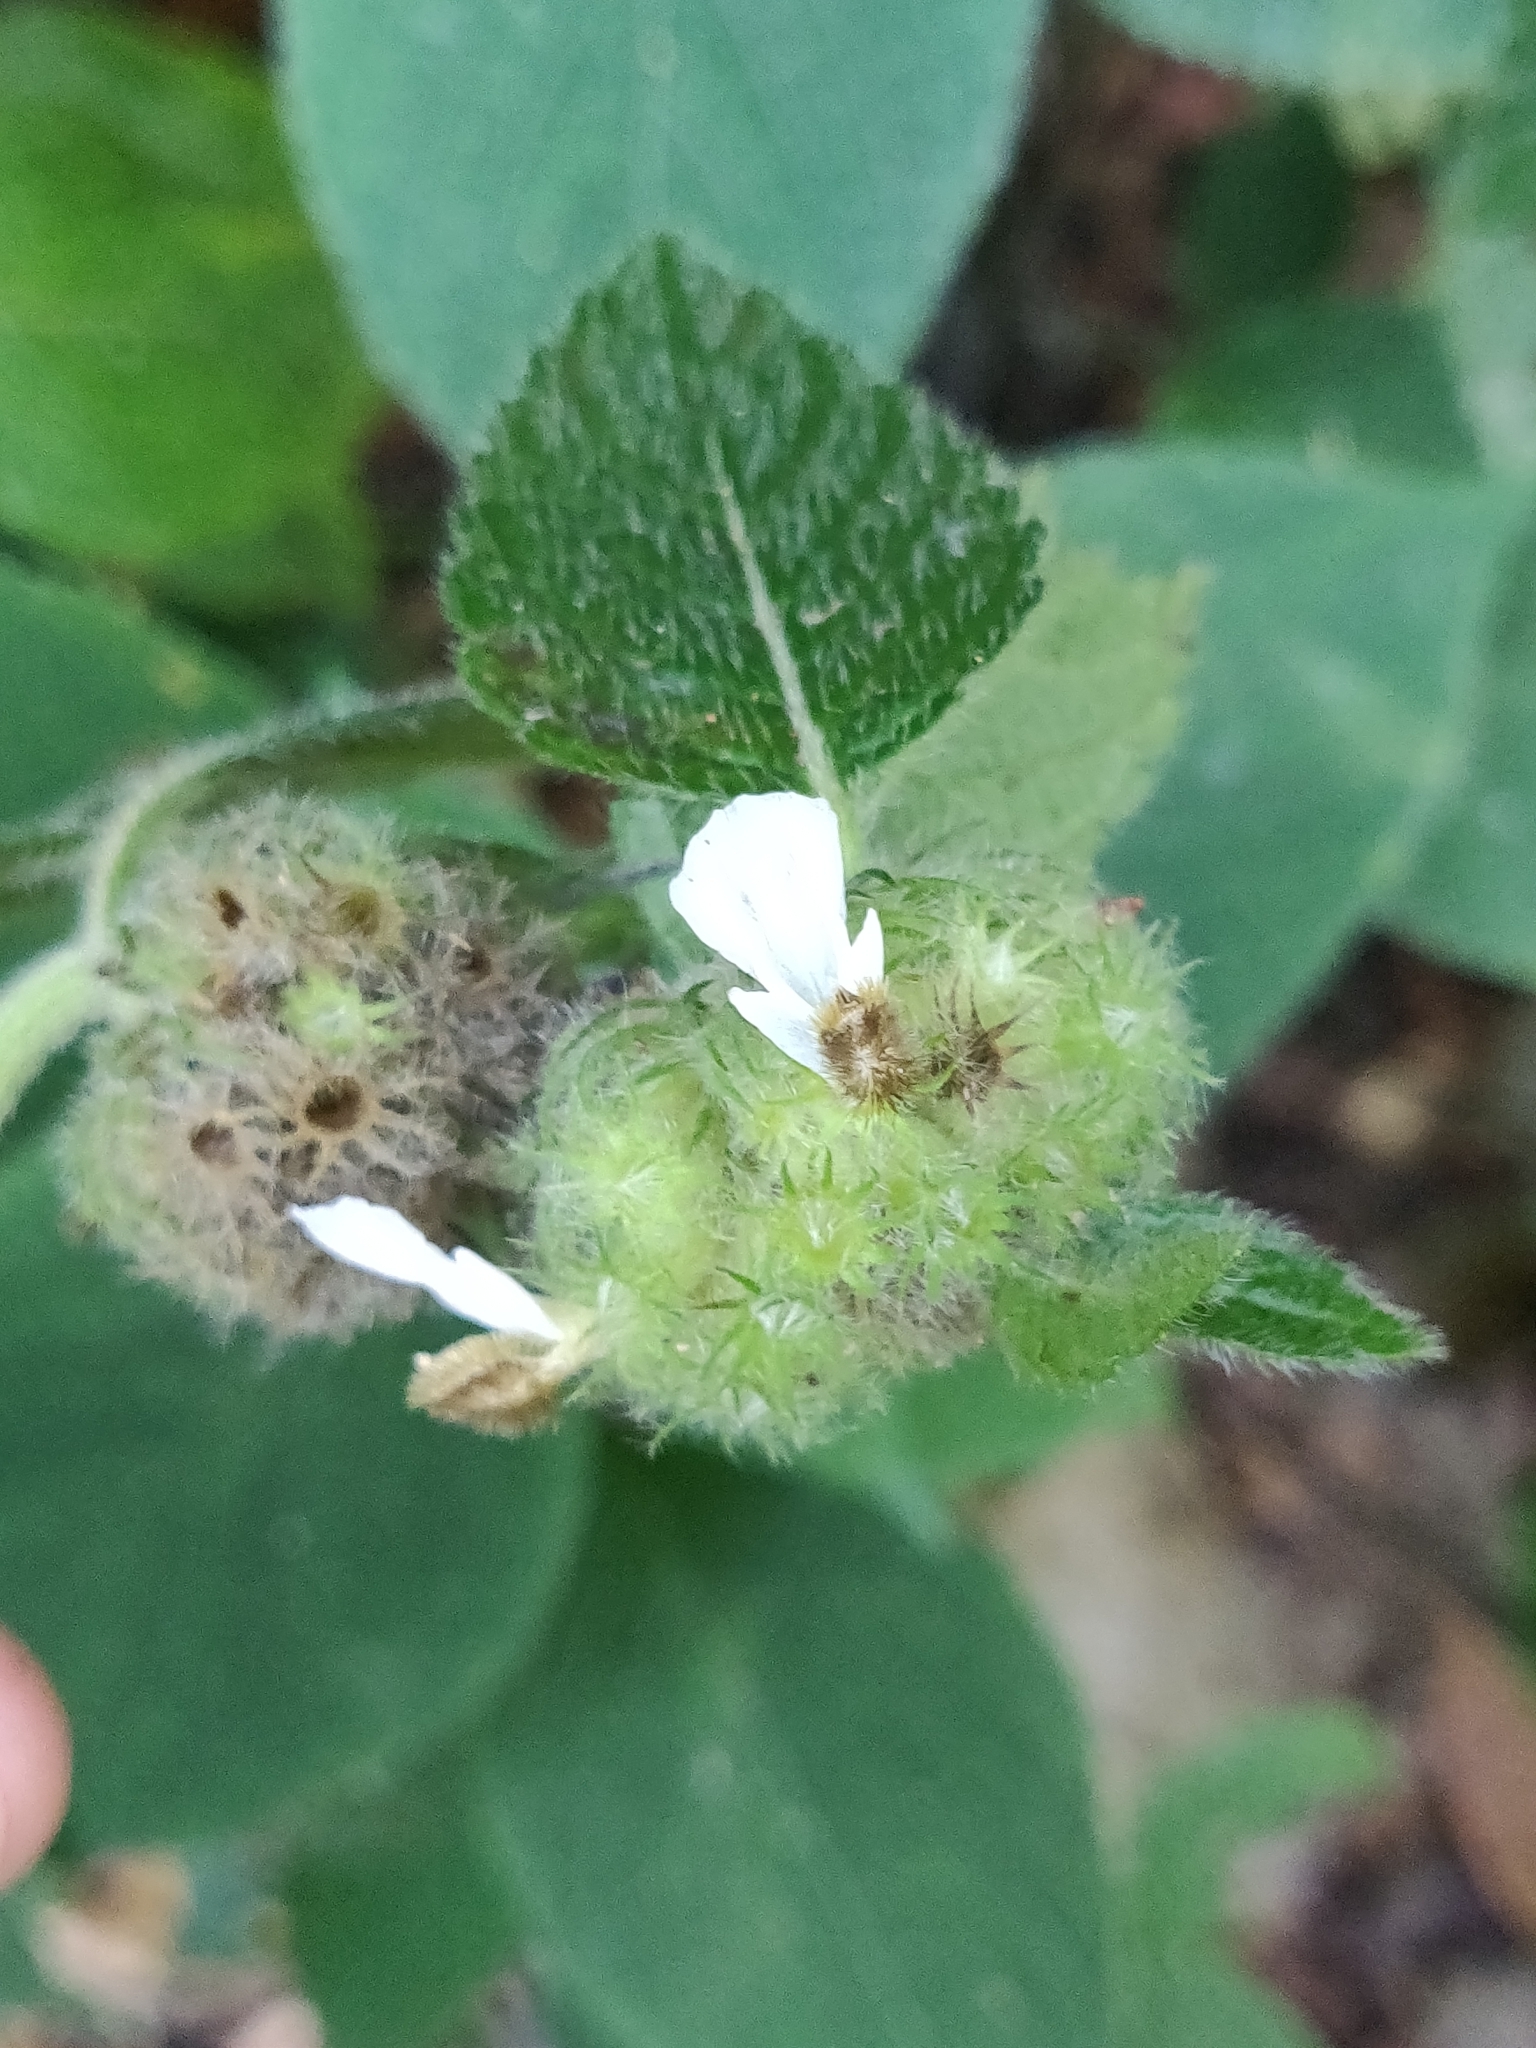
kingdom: Plantae
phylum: Tracheophyta
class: Magnoliopsida
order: Lamiales
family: Lamiaceae
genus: Leucas
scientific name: Leucas ciliata
